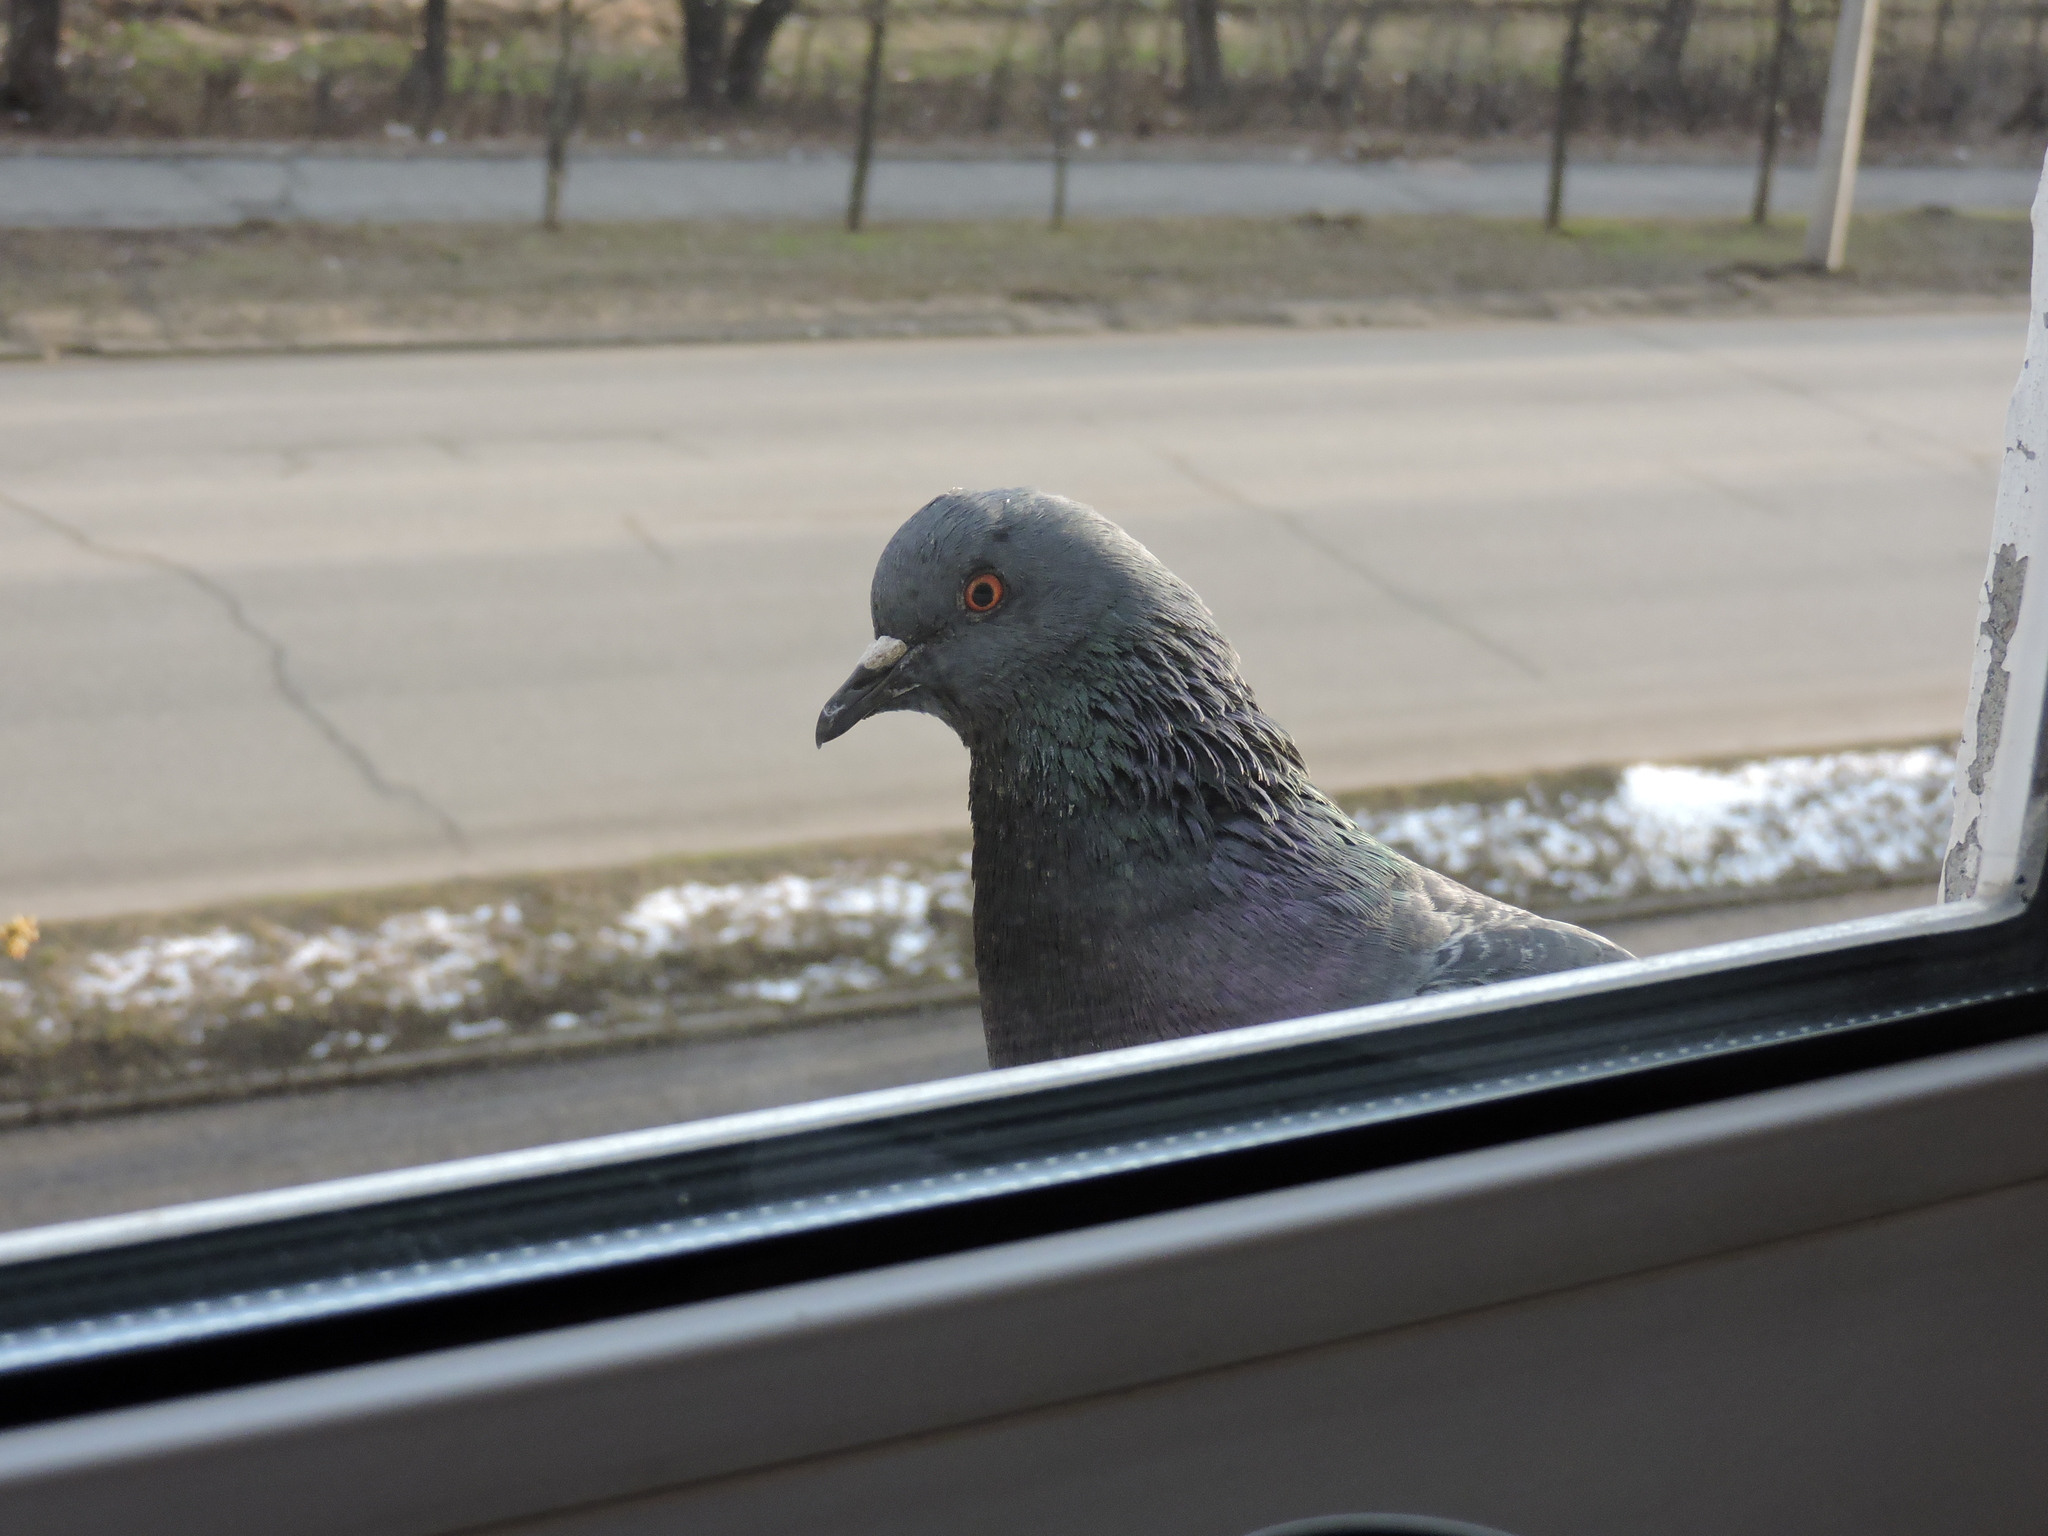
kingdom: Animalia
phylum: Chordata
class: Aves
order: Columbiformes
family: Columbidae
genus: Columba
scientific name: Columba livia
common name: Rock pigeon
